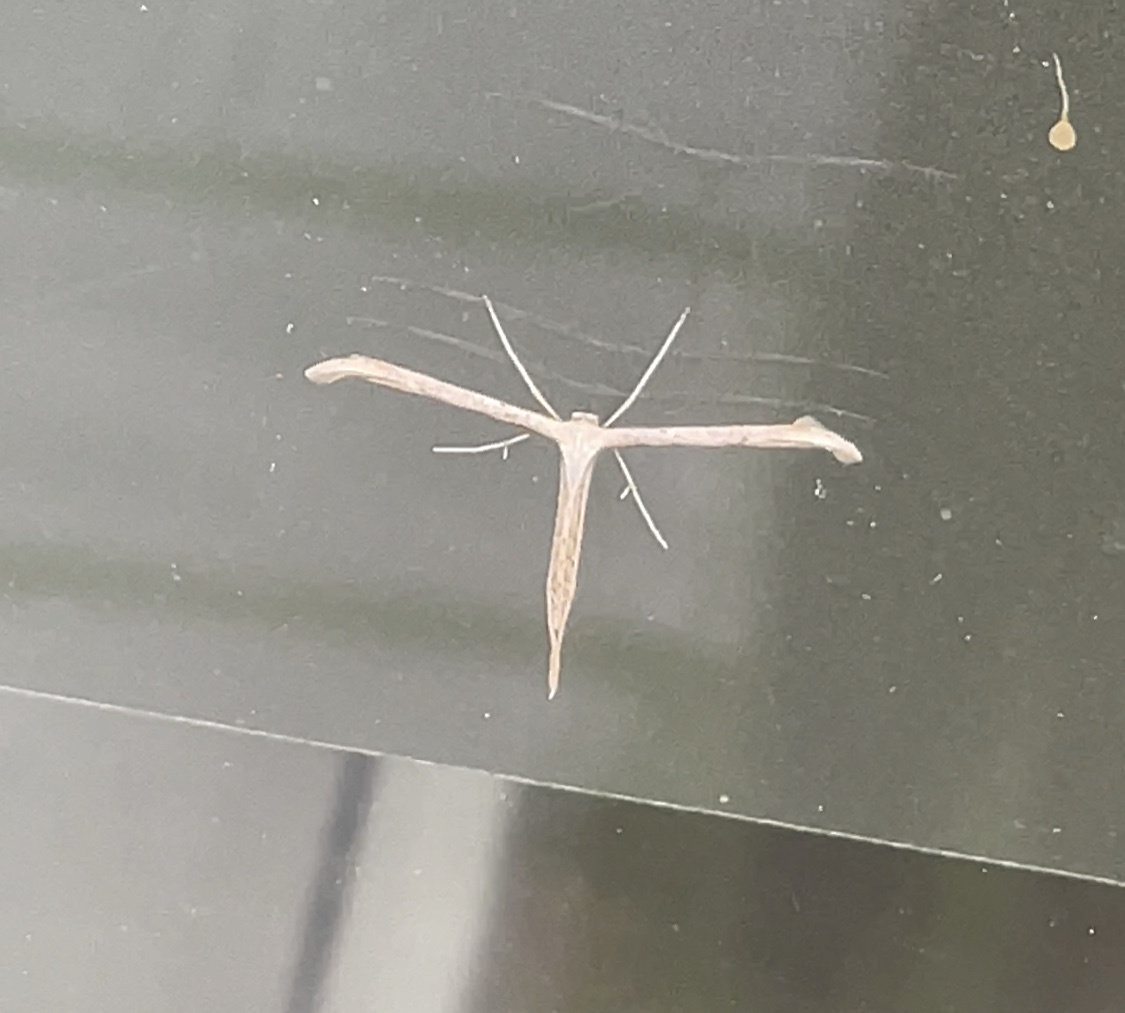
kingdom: Animalia
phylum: Arthropoda
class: Insecta
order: Lepidoptera
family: Pterophoridae
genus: Emmelina
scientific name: Emmelina monodactyla
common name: Common plume
